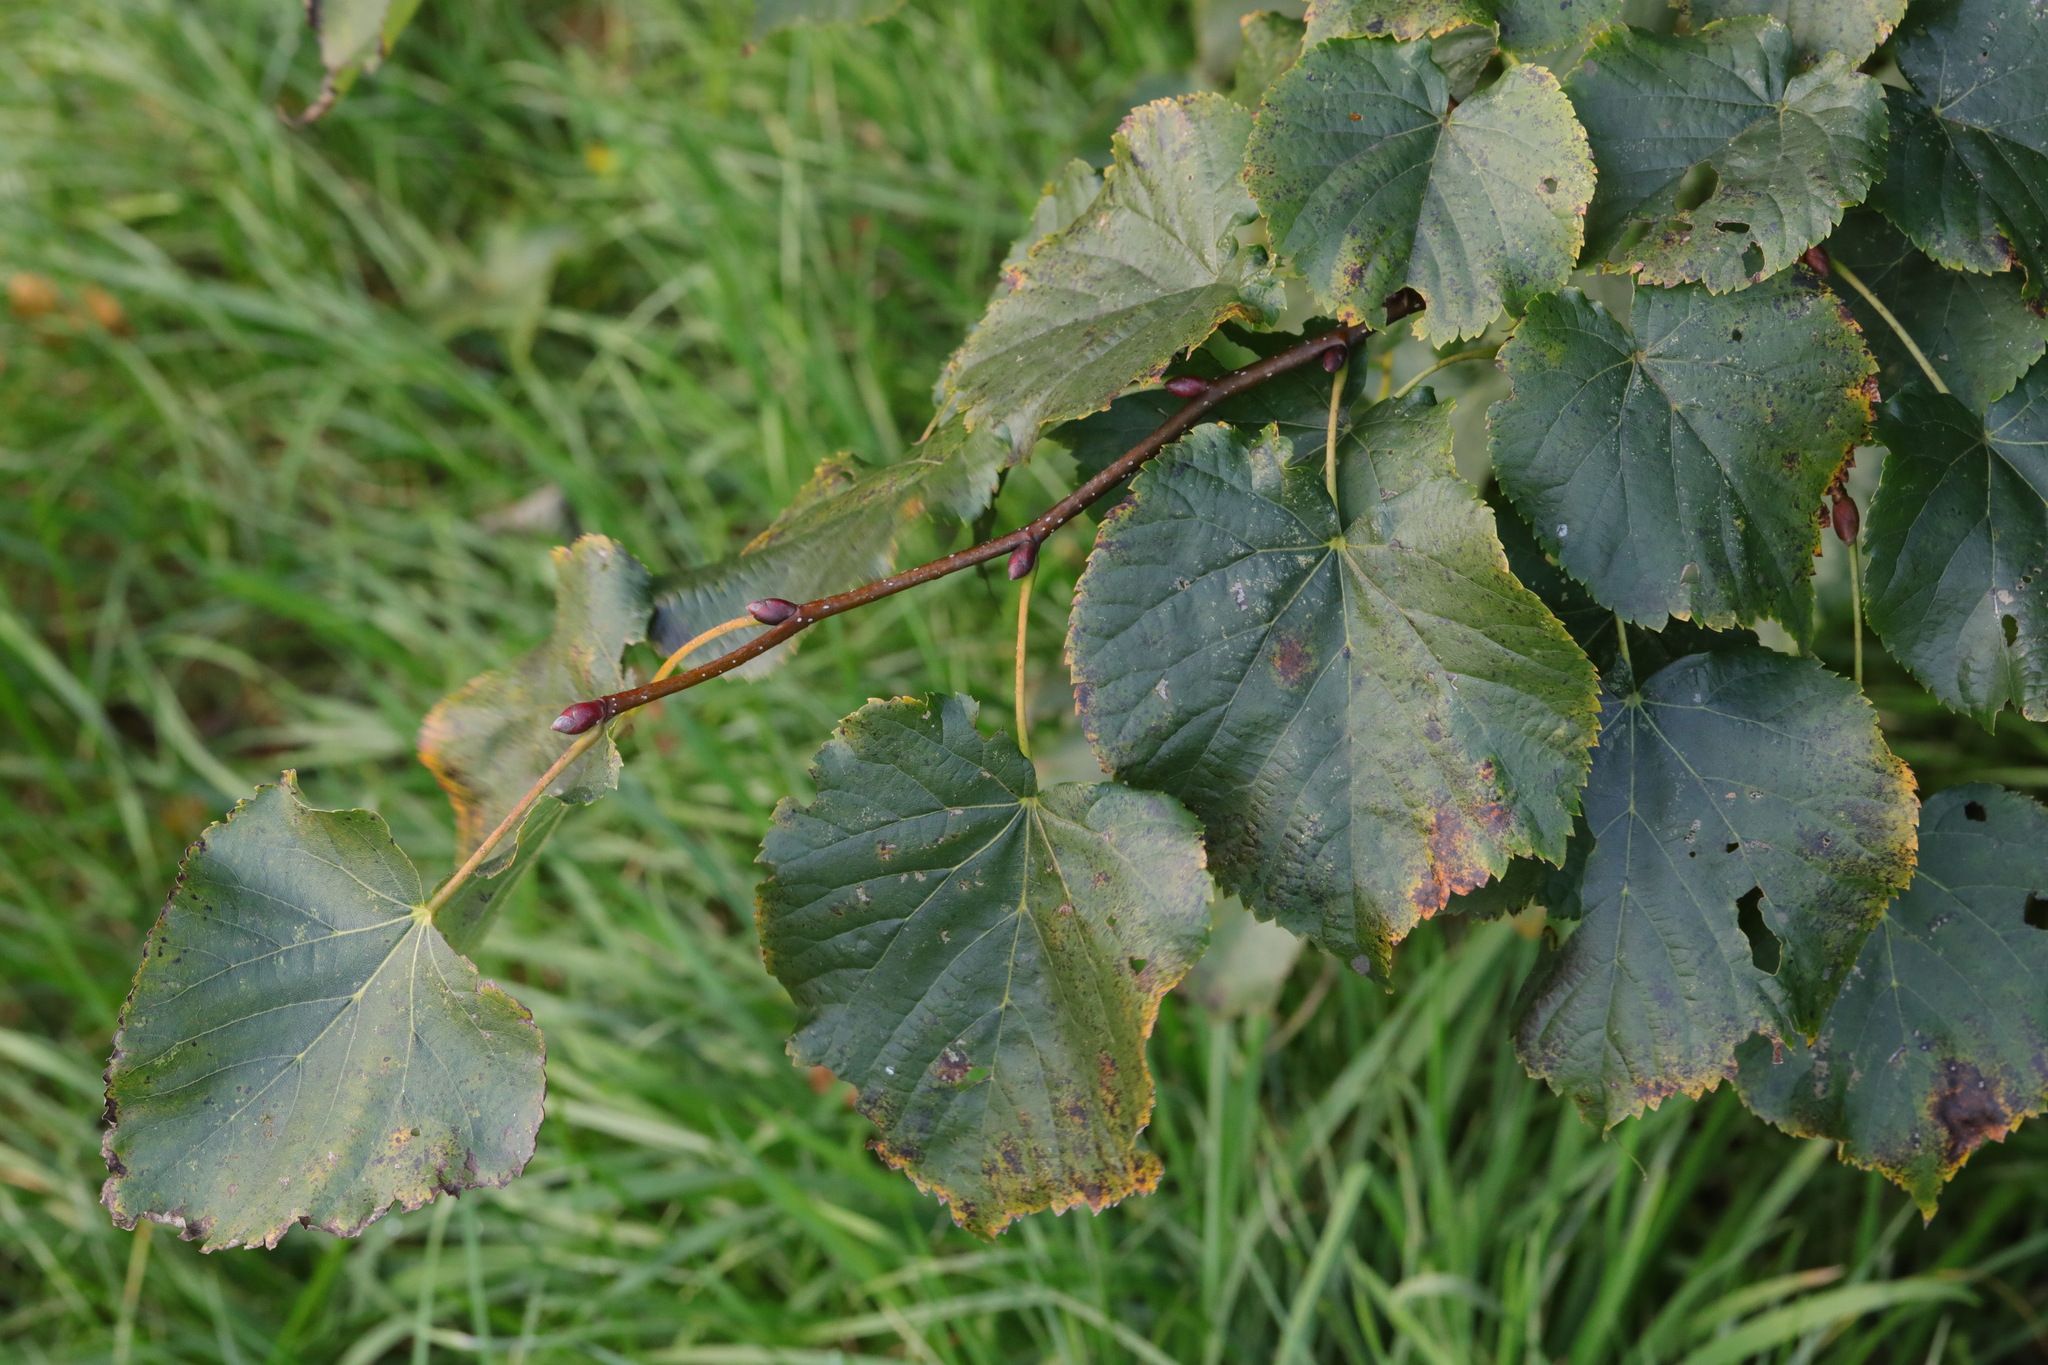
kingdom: Plantae
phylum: Tracheophyta
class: Magnoliopsida
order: Malvales
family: Malvaceae
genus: Tilia
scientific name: Tilia europaea
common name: European linden
